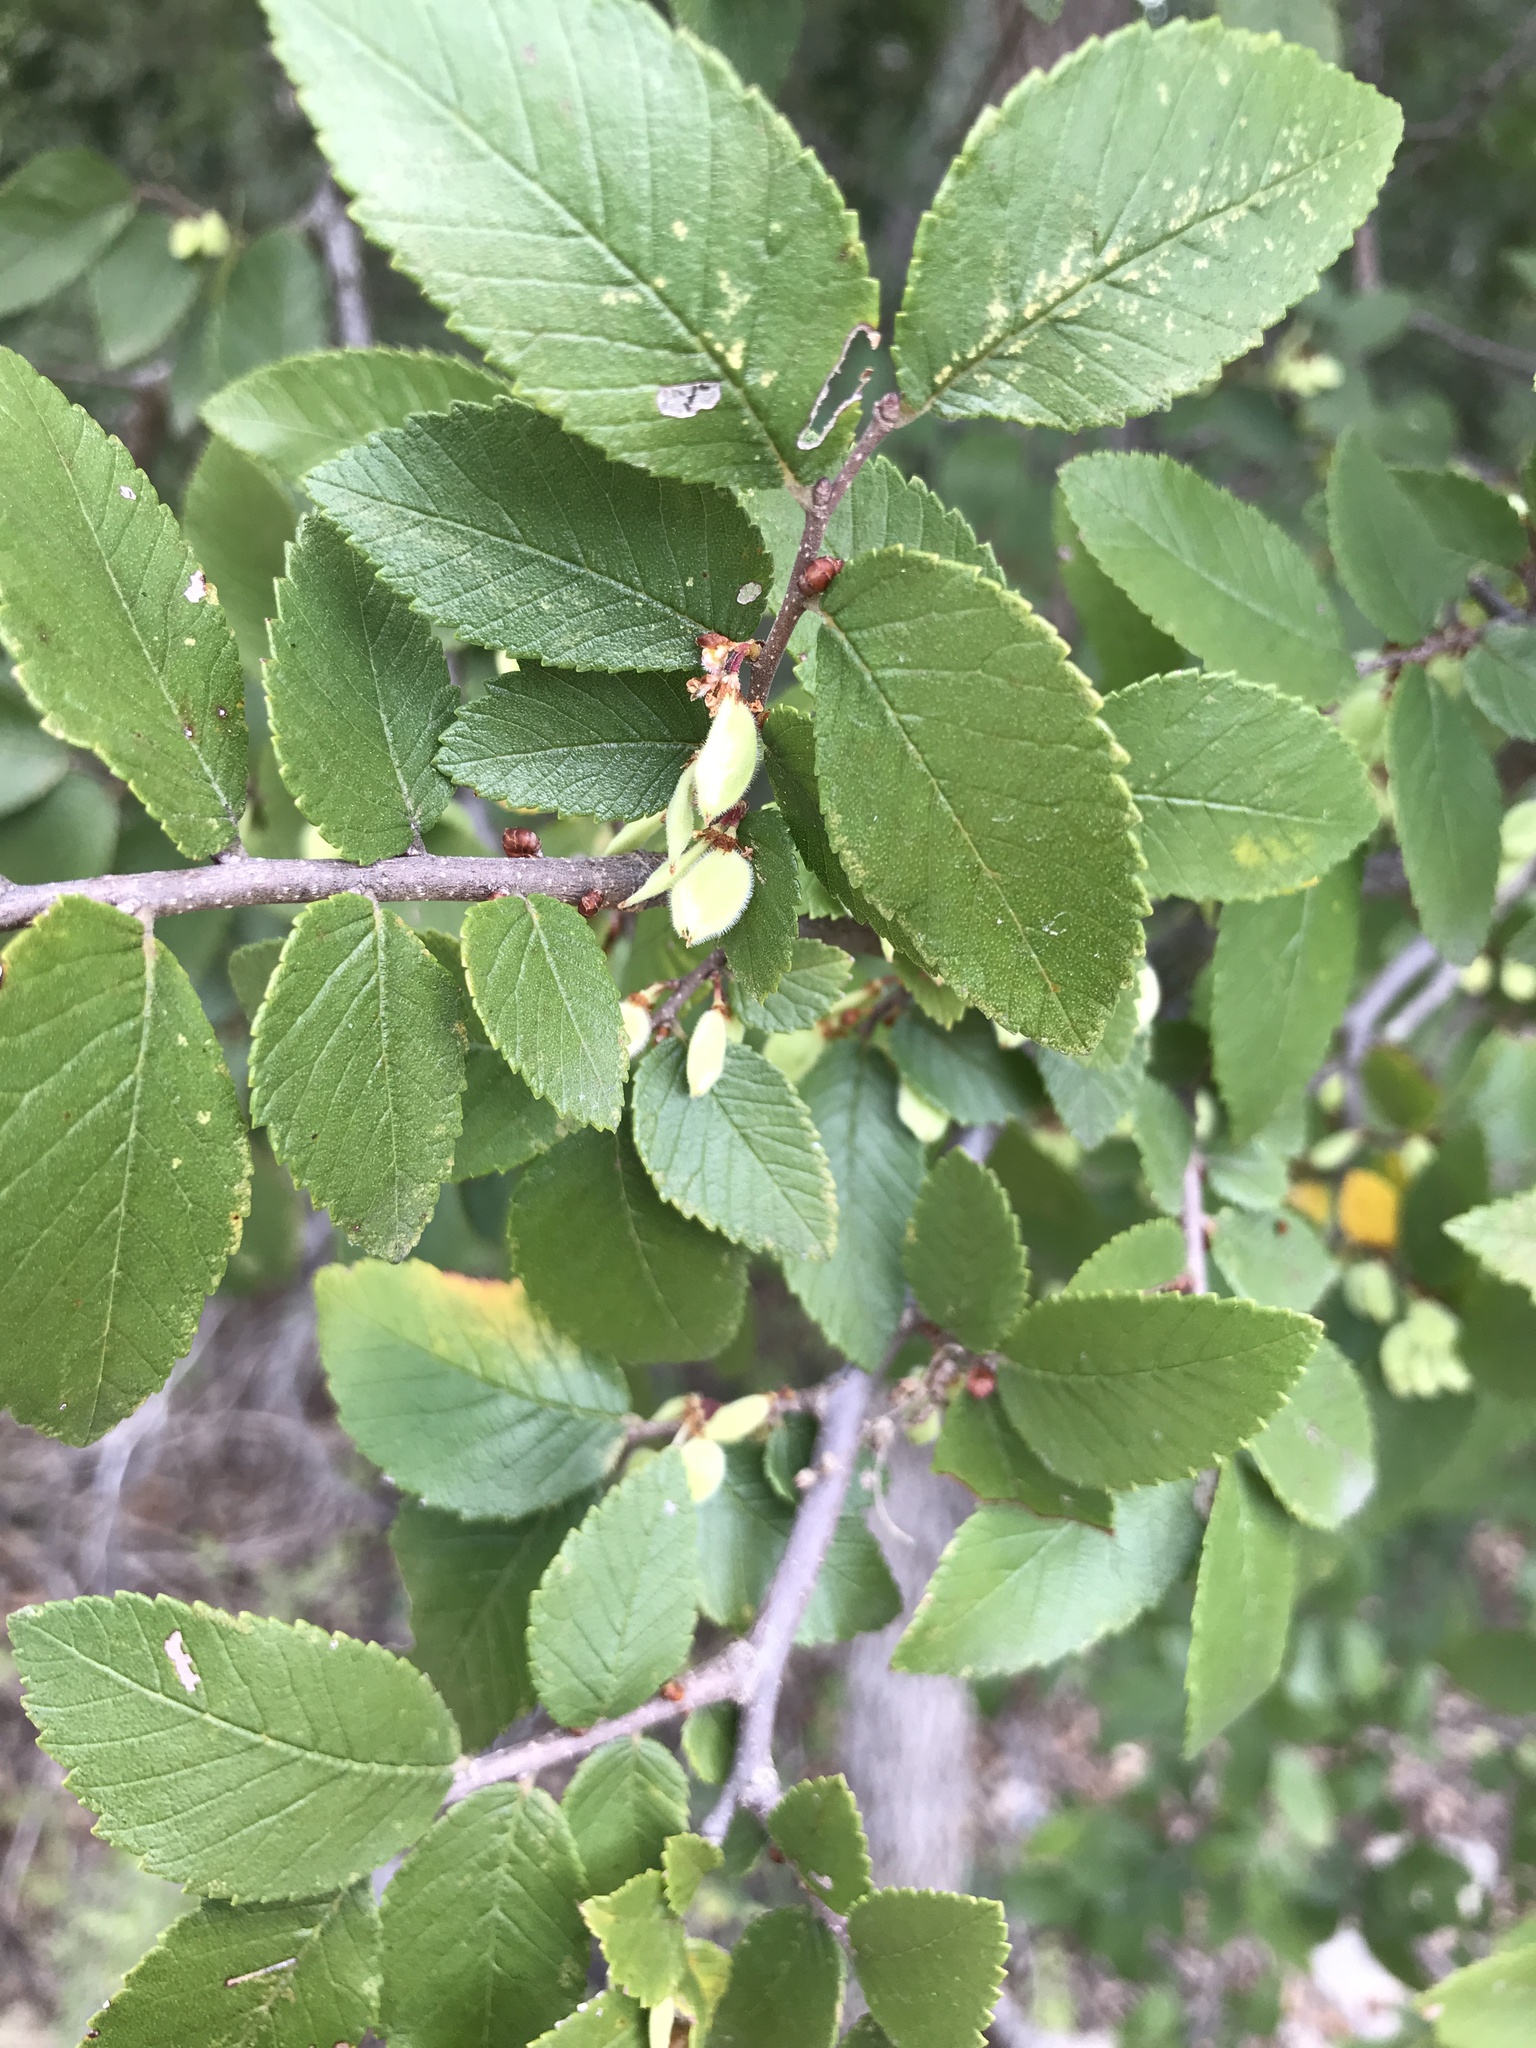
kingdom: Plantae
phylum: Tracheophyta
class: Magnoliopsida
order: Rosales
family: Ulmaceae
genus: Ulmus
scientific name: Ulmus crassifolia
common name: Basket elm
